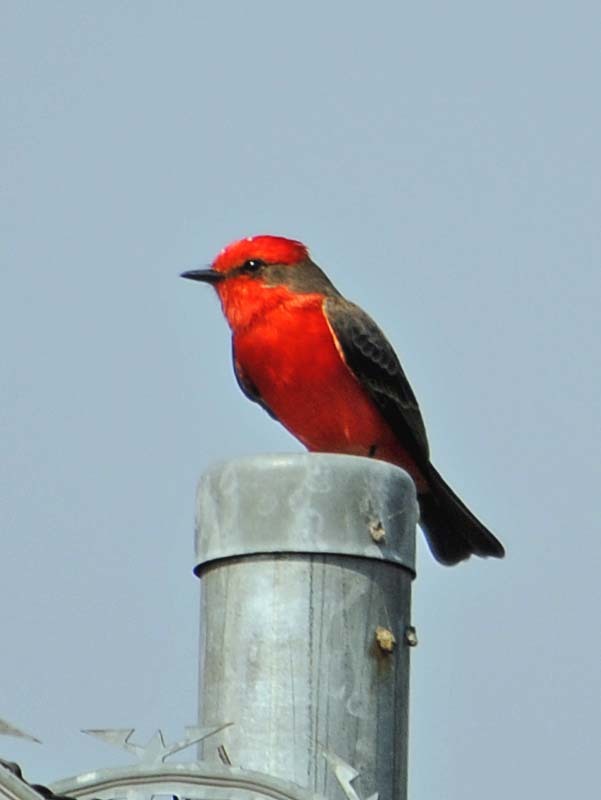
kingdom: Animalia
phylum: Chordata
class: Aves
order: Passeriformes
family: Tyrannidae
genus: Pyrocephalus
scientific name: Pyrocephalus rubinus
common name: Vermilion flycatcher
